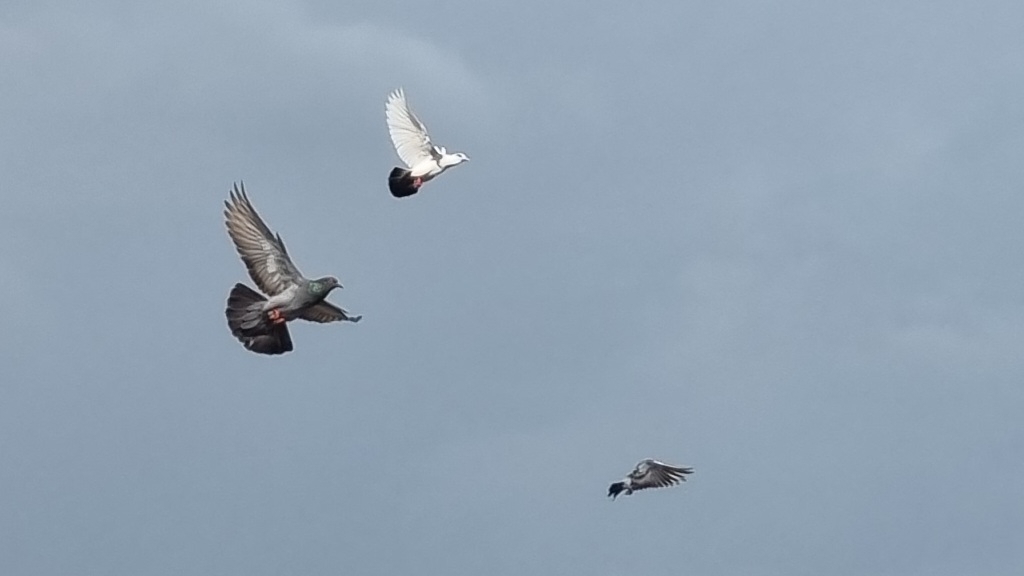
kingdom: Animalia
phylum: Chordata
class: Aves
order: Columbiformes
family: Columbidae
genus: Columba
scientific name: Columba livia
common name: Rock pigeon
